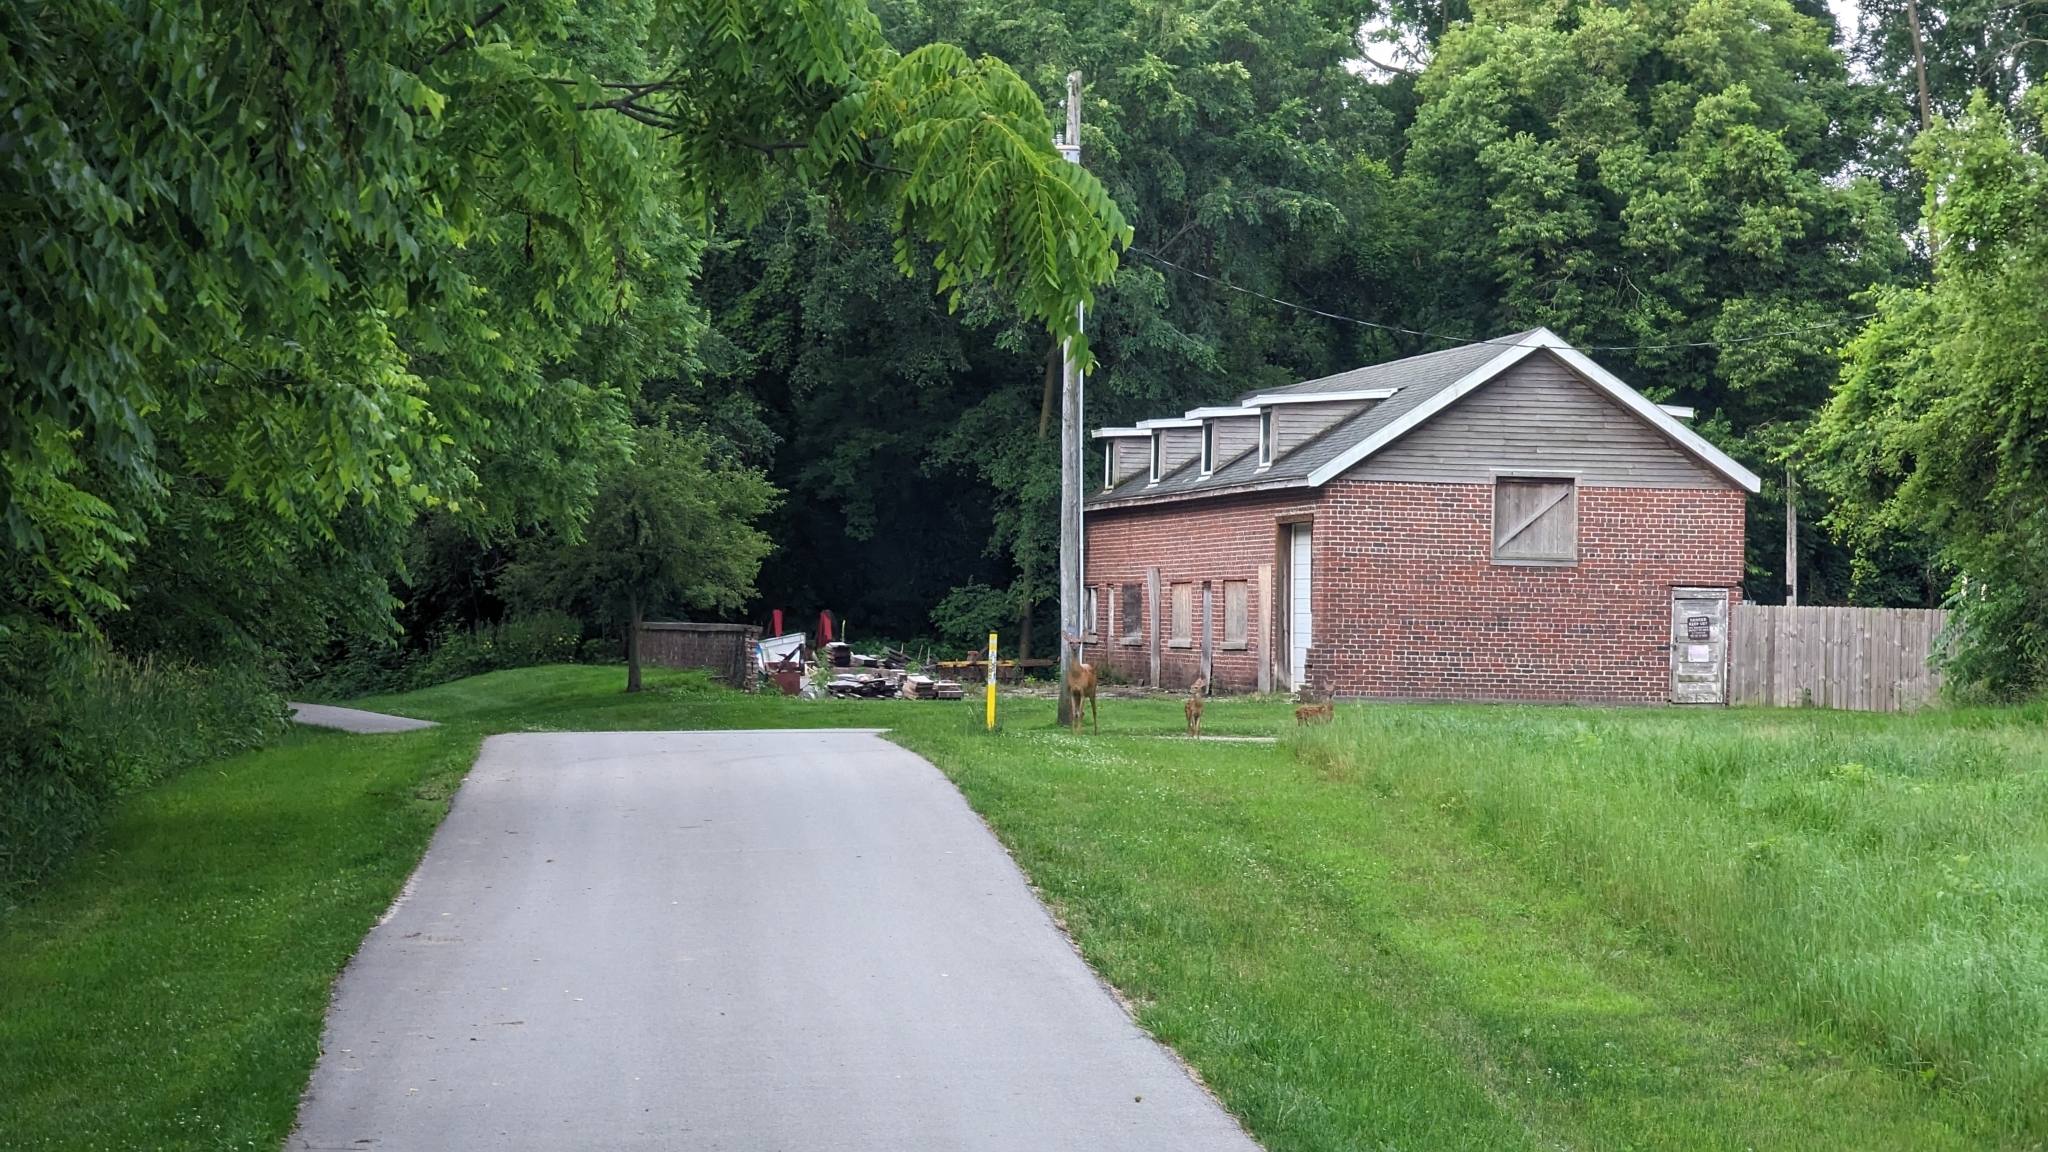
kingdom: Animalia
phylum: Chordata
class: Mammalia
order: Artiodactyla
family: Cervidae
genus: Odocoileus
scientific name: Odocoileus virginianus
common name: White-tailed deer
